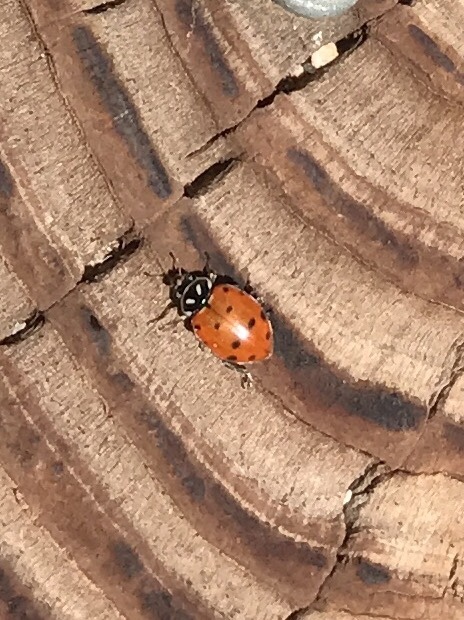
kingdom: Animalia
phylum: Arthropoda
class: Insecta
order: Coleoptera
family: Coccinellidae
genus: Hippodamia
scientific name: Hippodamia convergens
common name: Convergent lady beetle
